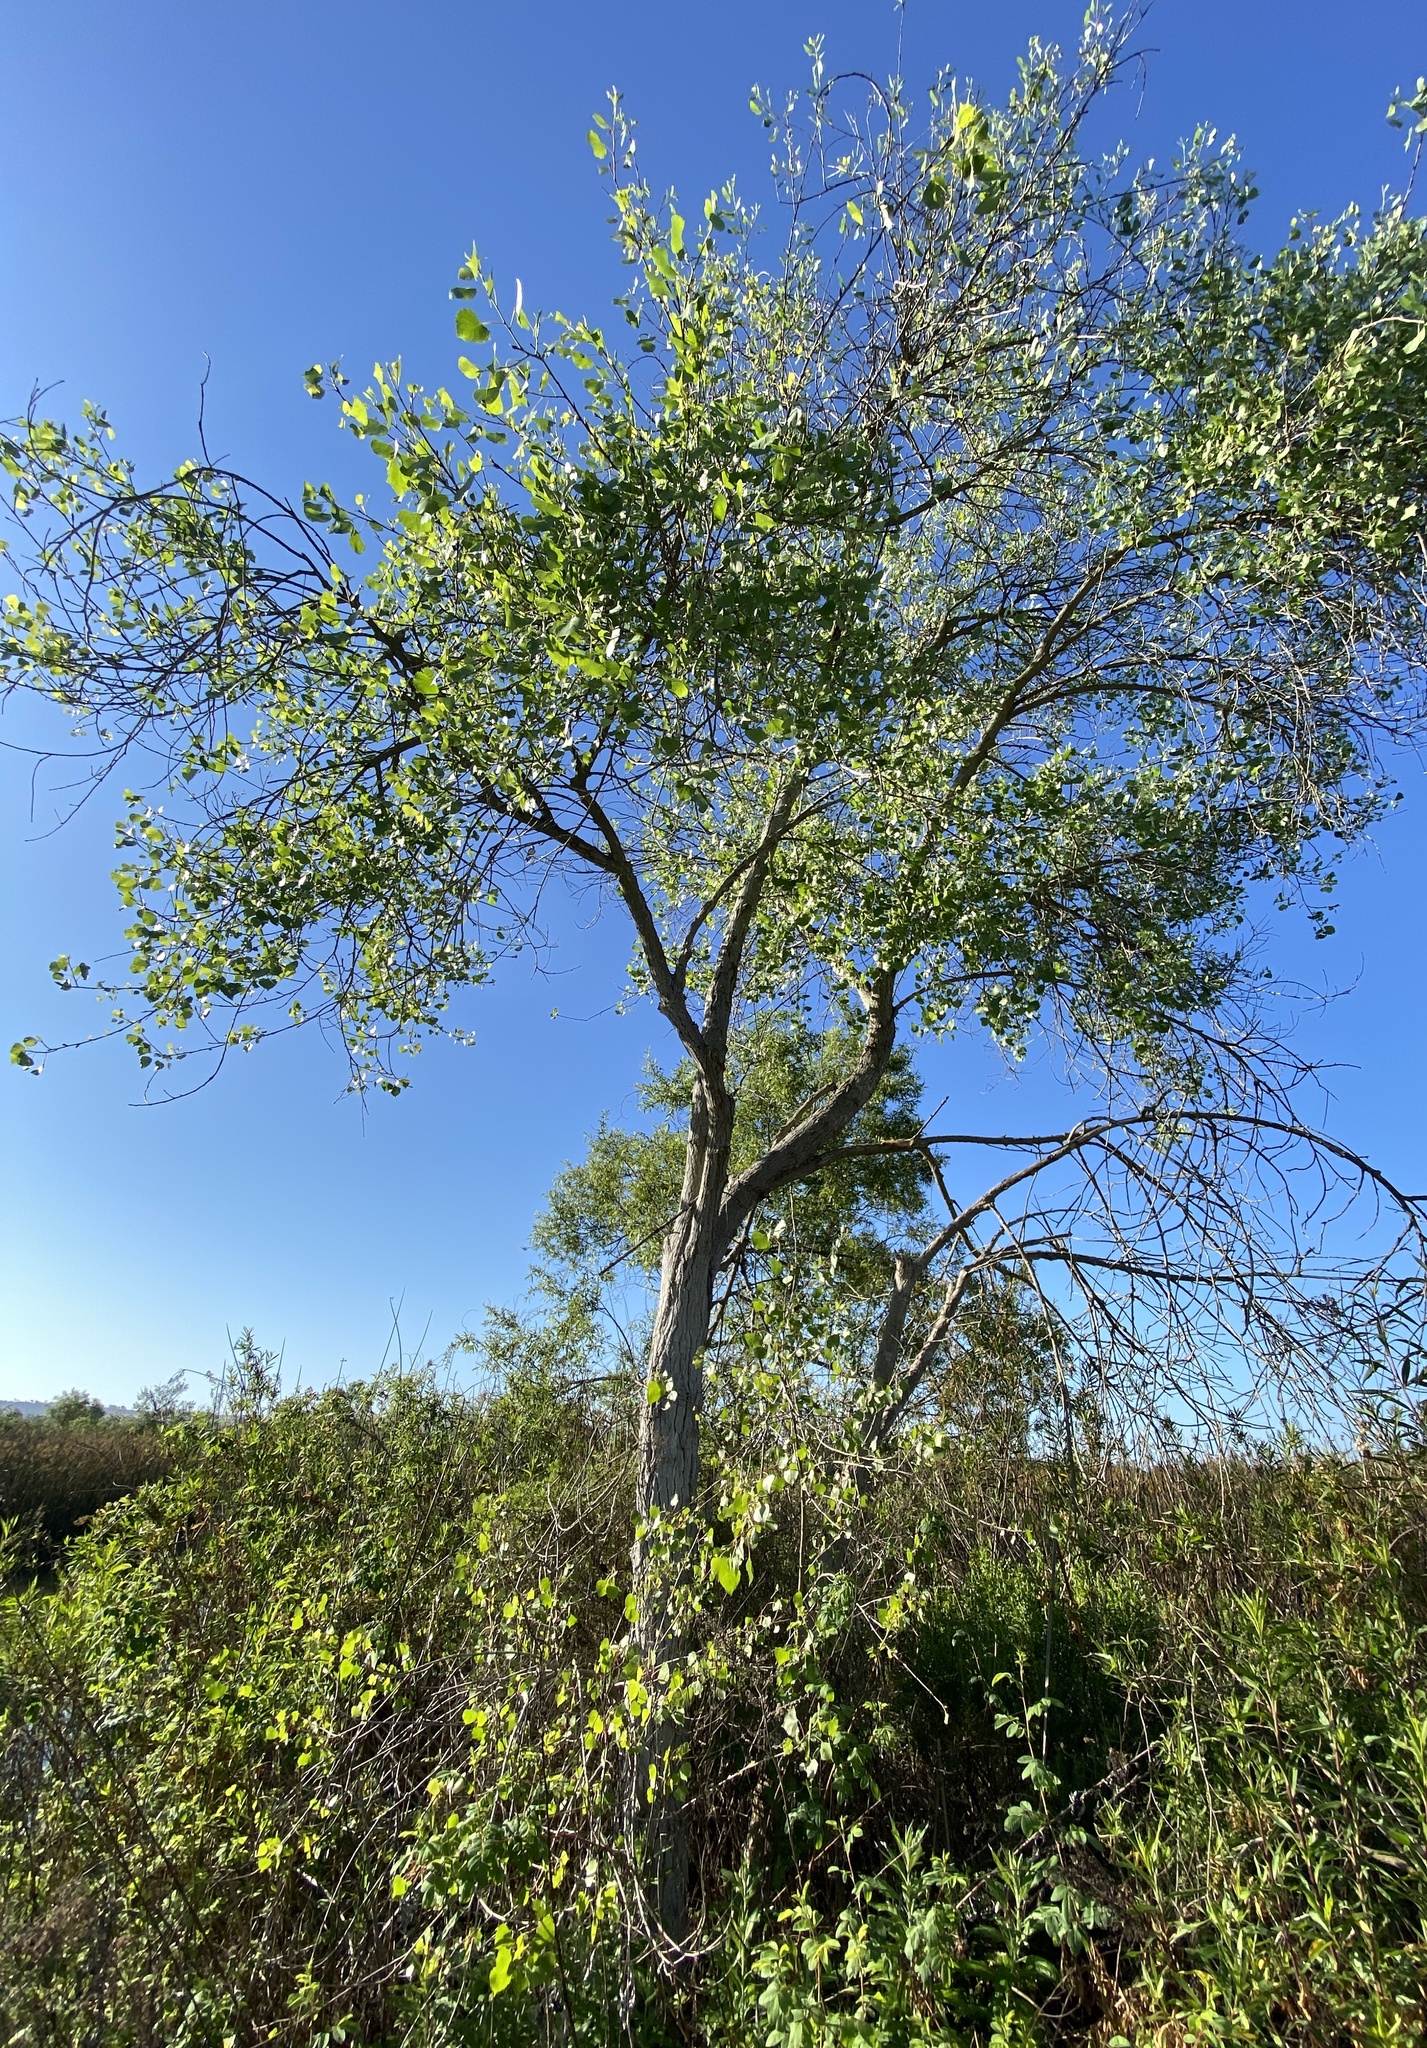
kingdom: Plantae
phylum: Tracheophyta
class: Magnoliopsida
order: Malpighiales
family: Salicaceae
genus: Populus
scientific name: Populus fremontii
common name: Fremont's cottonwood
